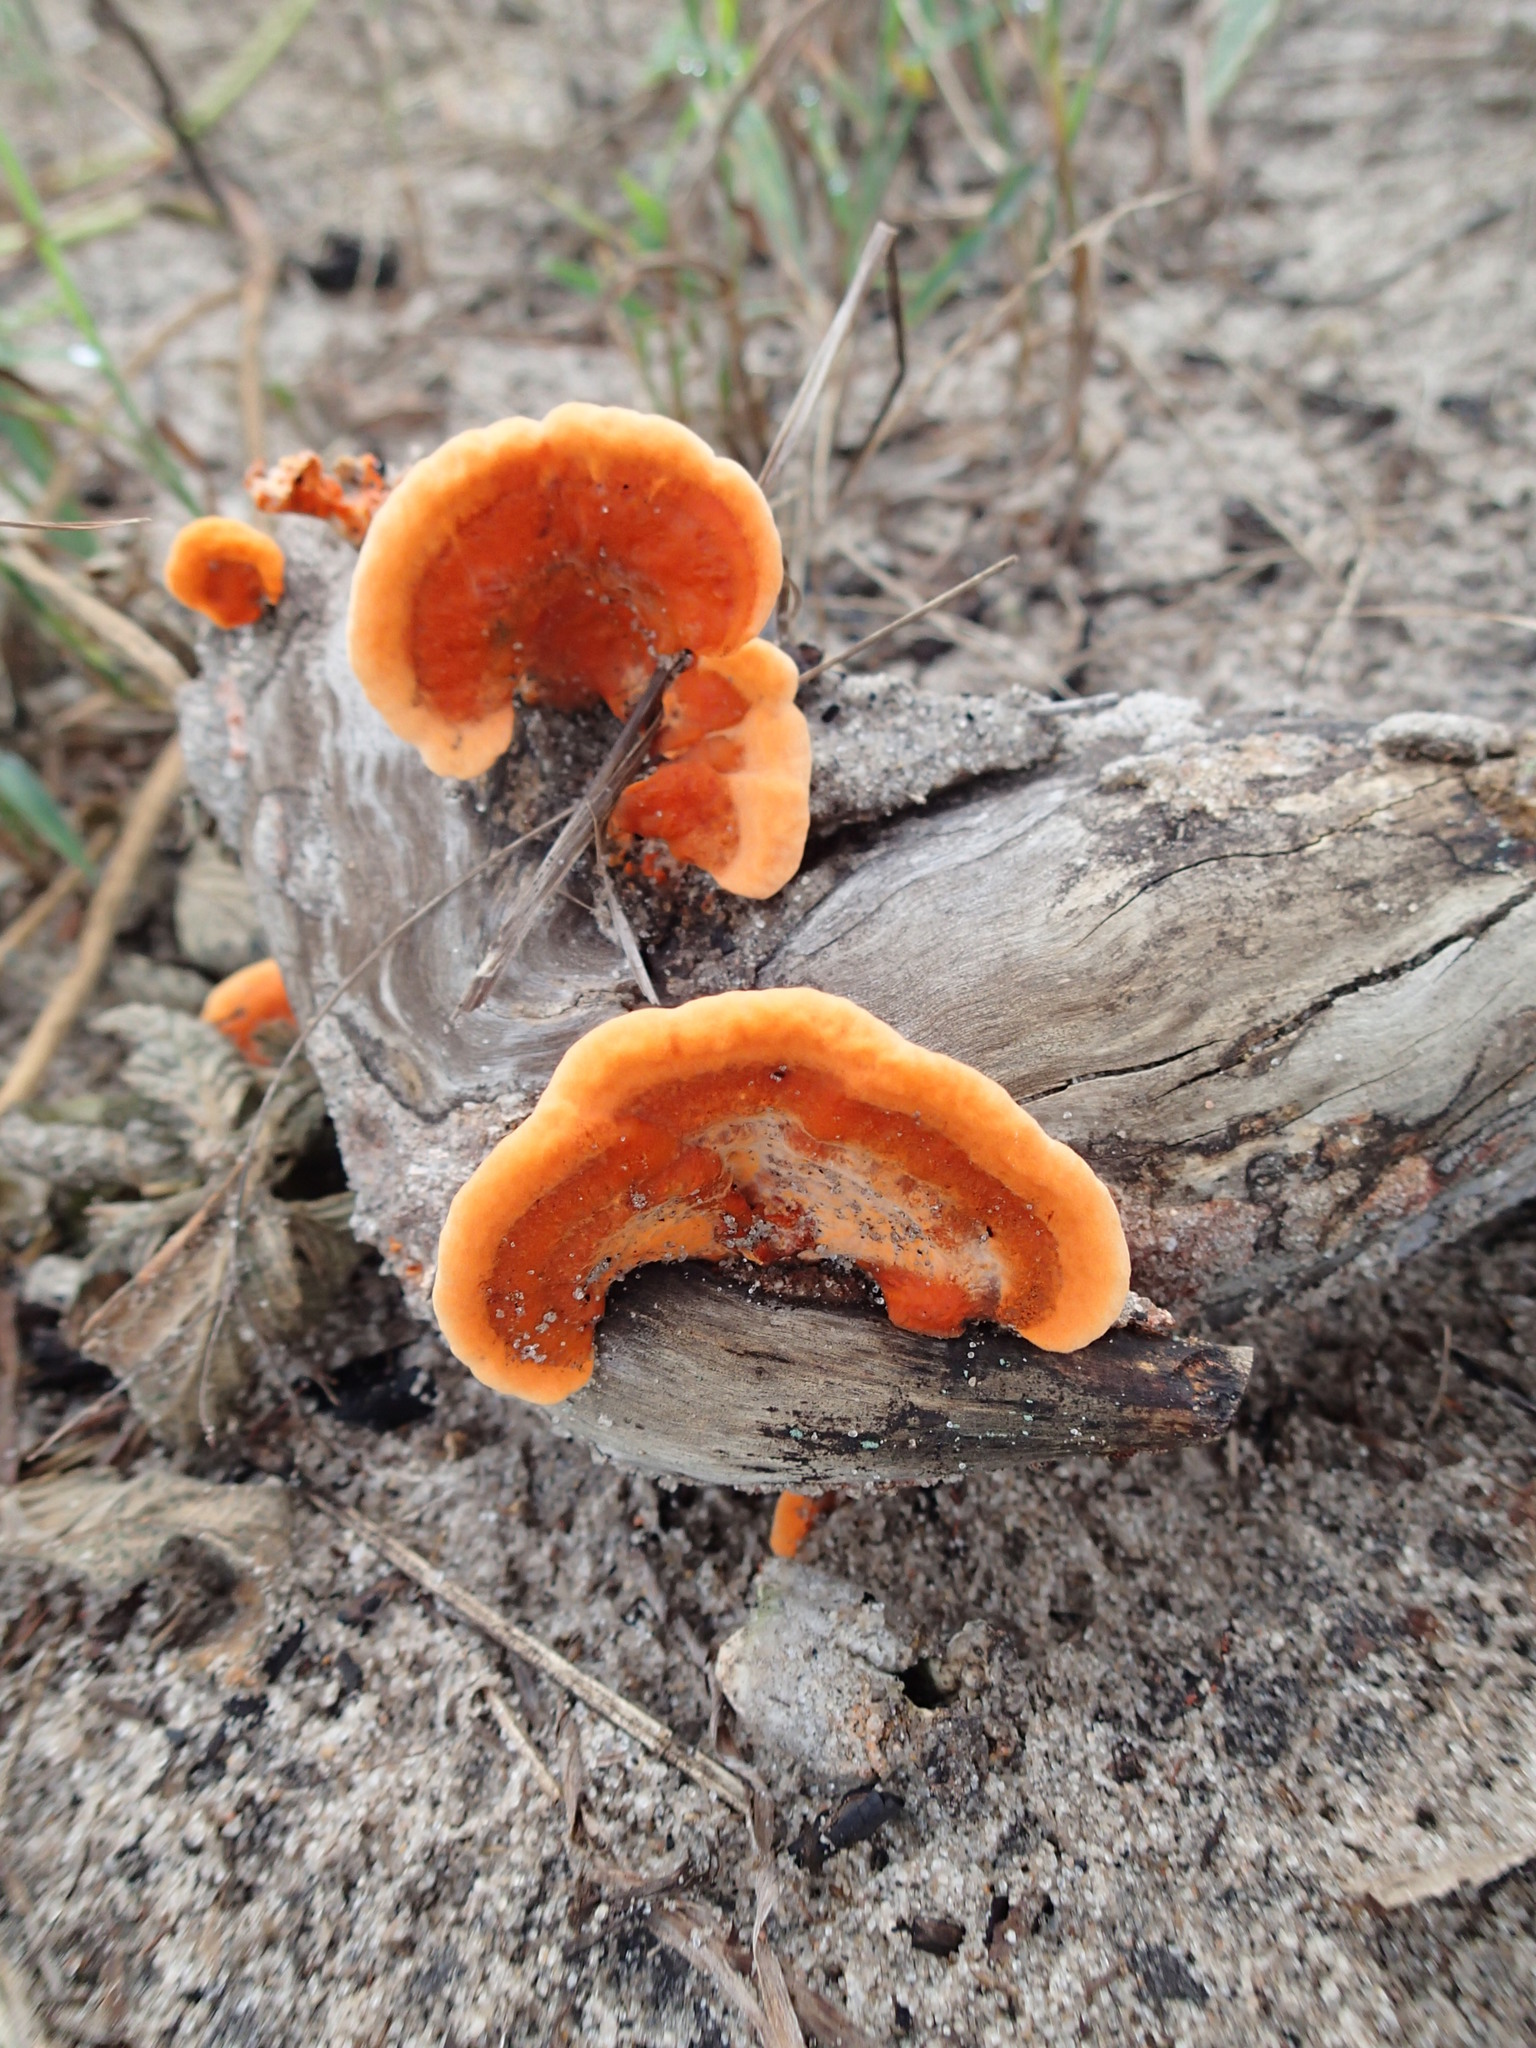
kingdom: Fungi
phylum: Basidiomycota
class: Agaricomycetes
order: Polyporales
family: Polyporaceae
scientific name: Polyporaceae
